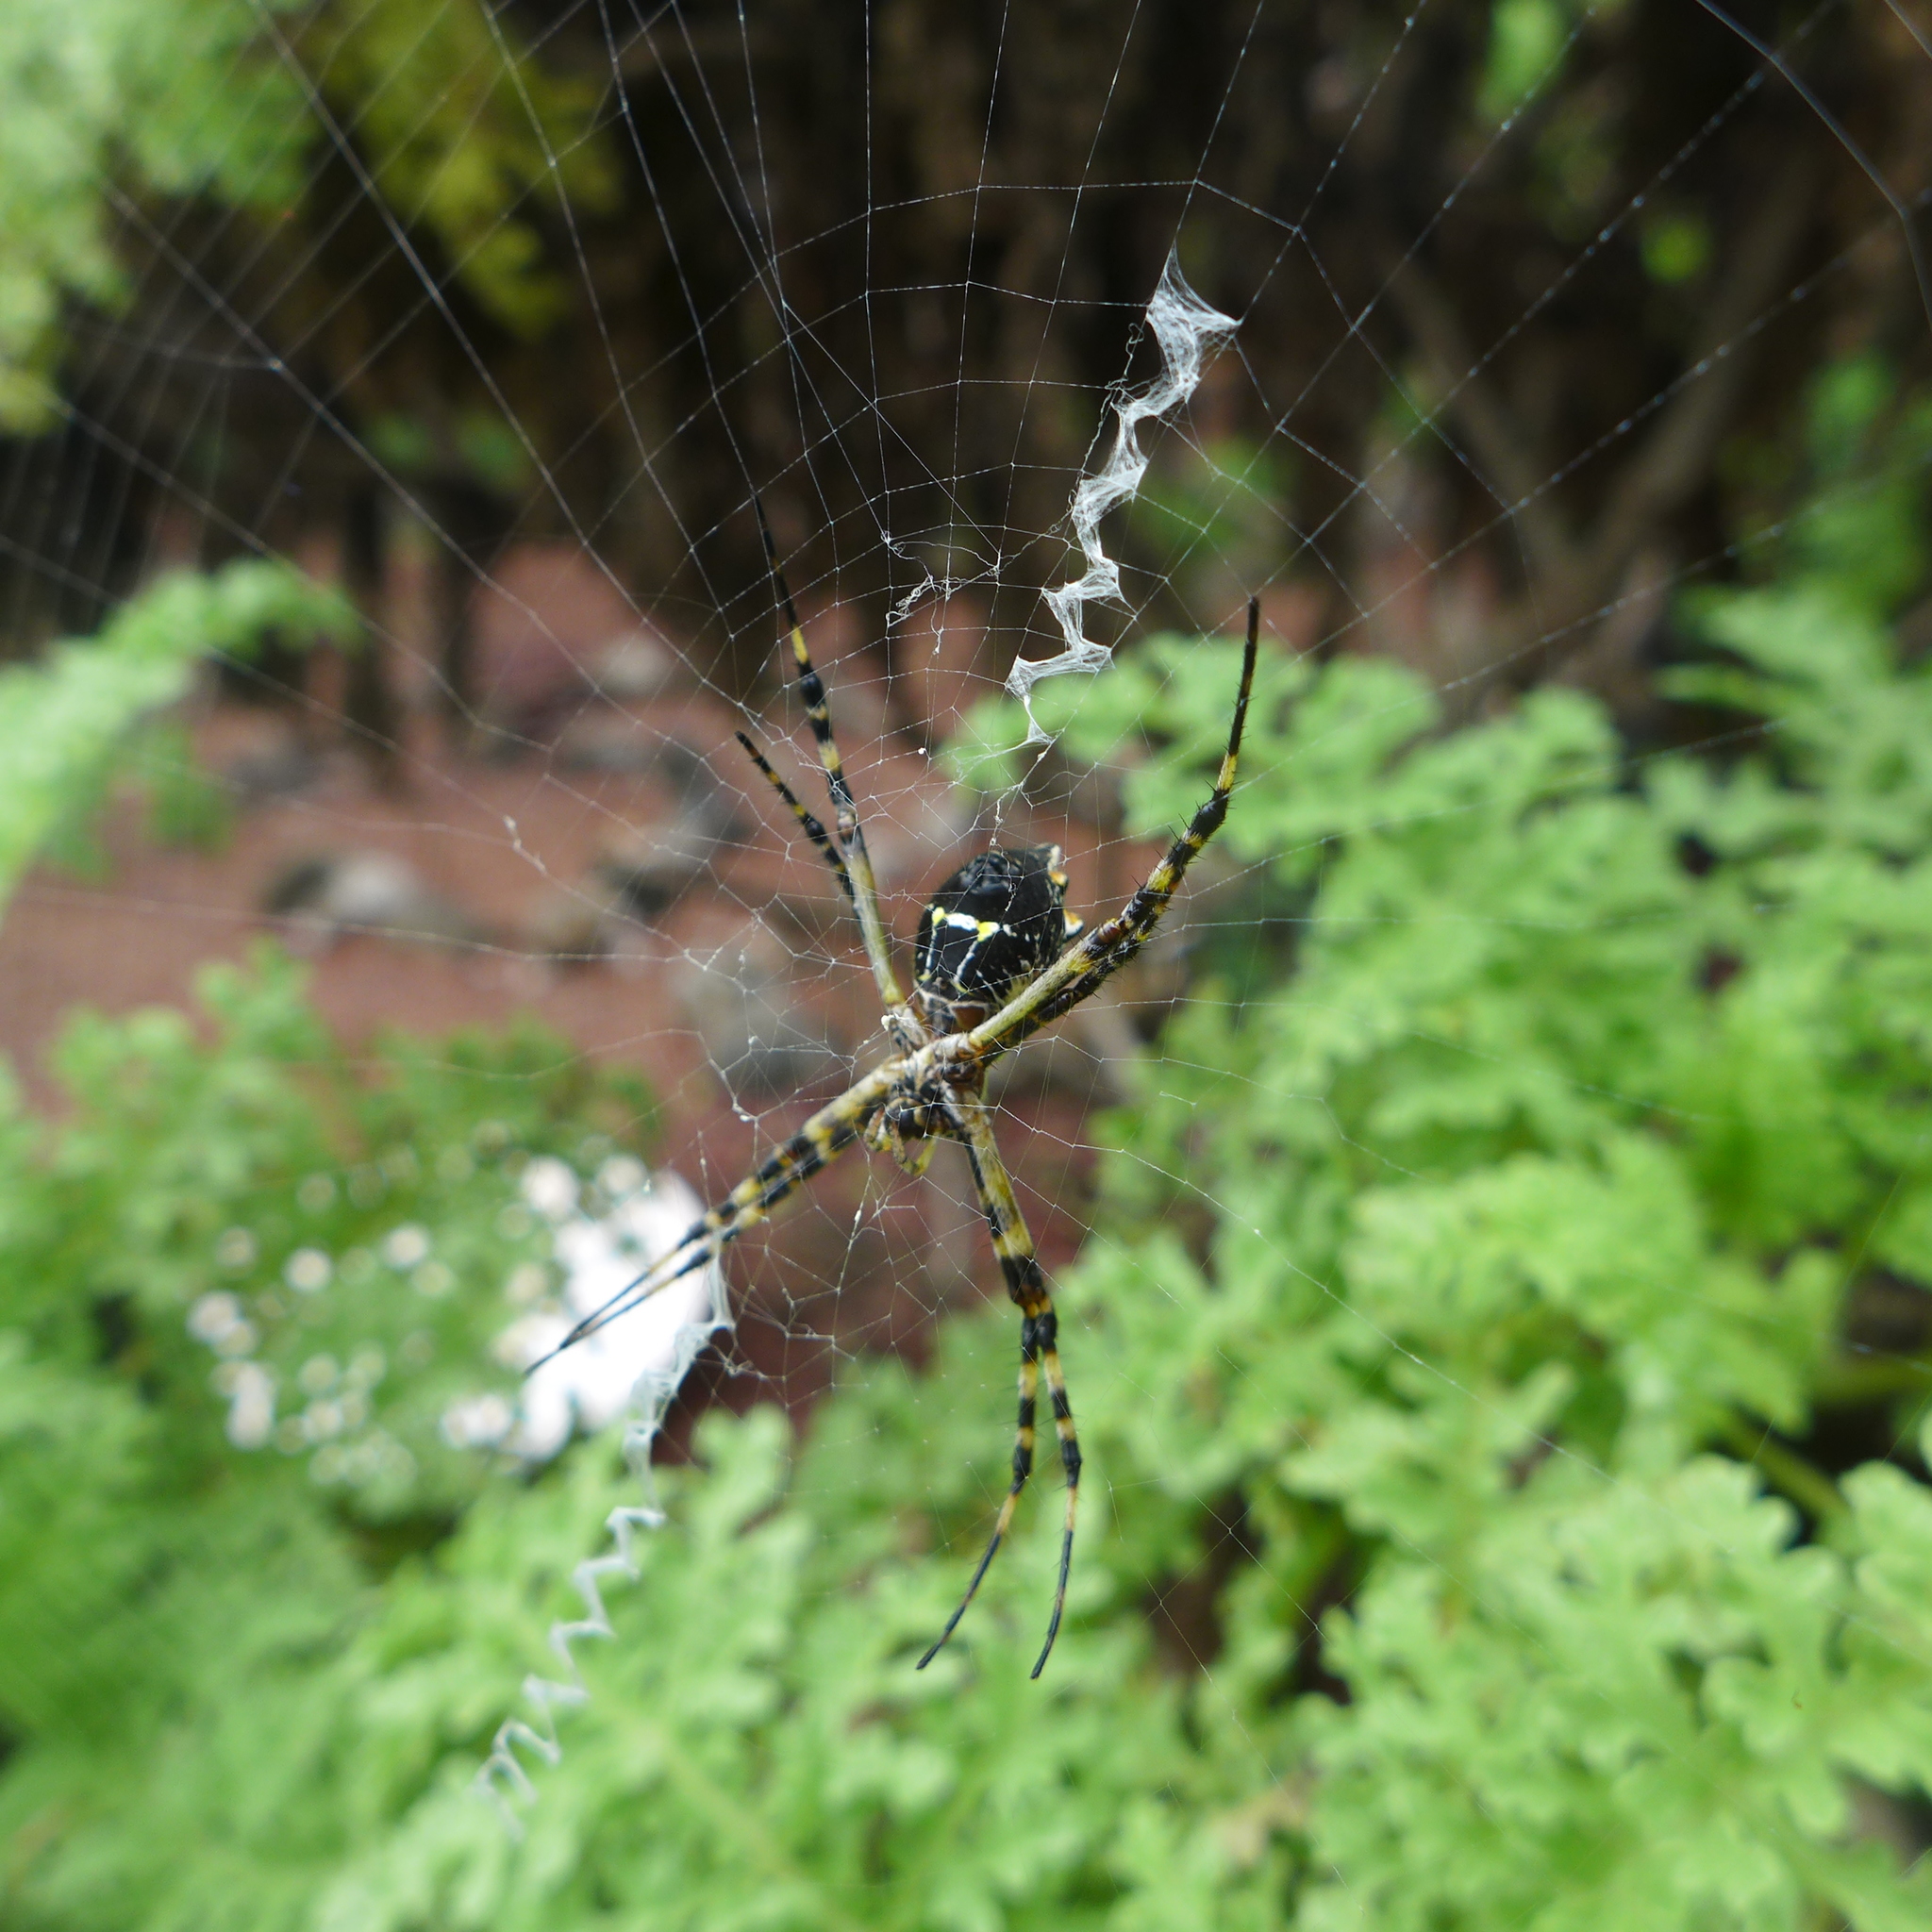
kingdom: Animalia
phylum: Arthropoda
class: Arachnida
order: Araneae
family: Araneidae
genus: Argiope
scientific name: Argiope argentata
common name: Orb weavers
